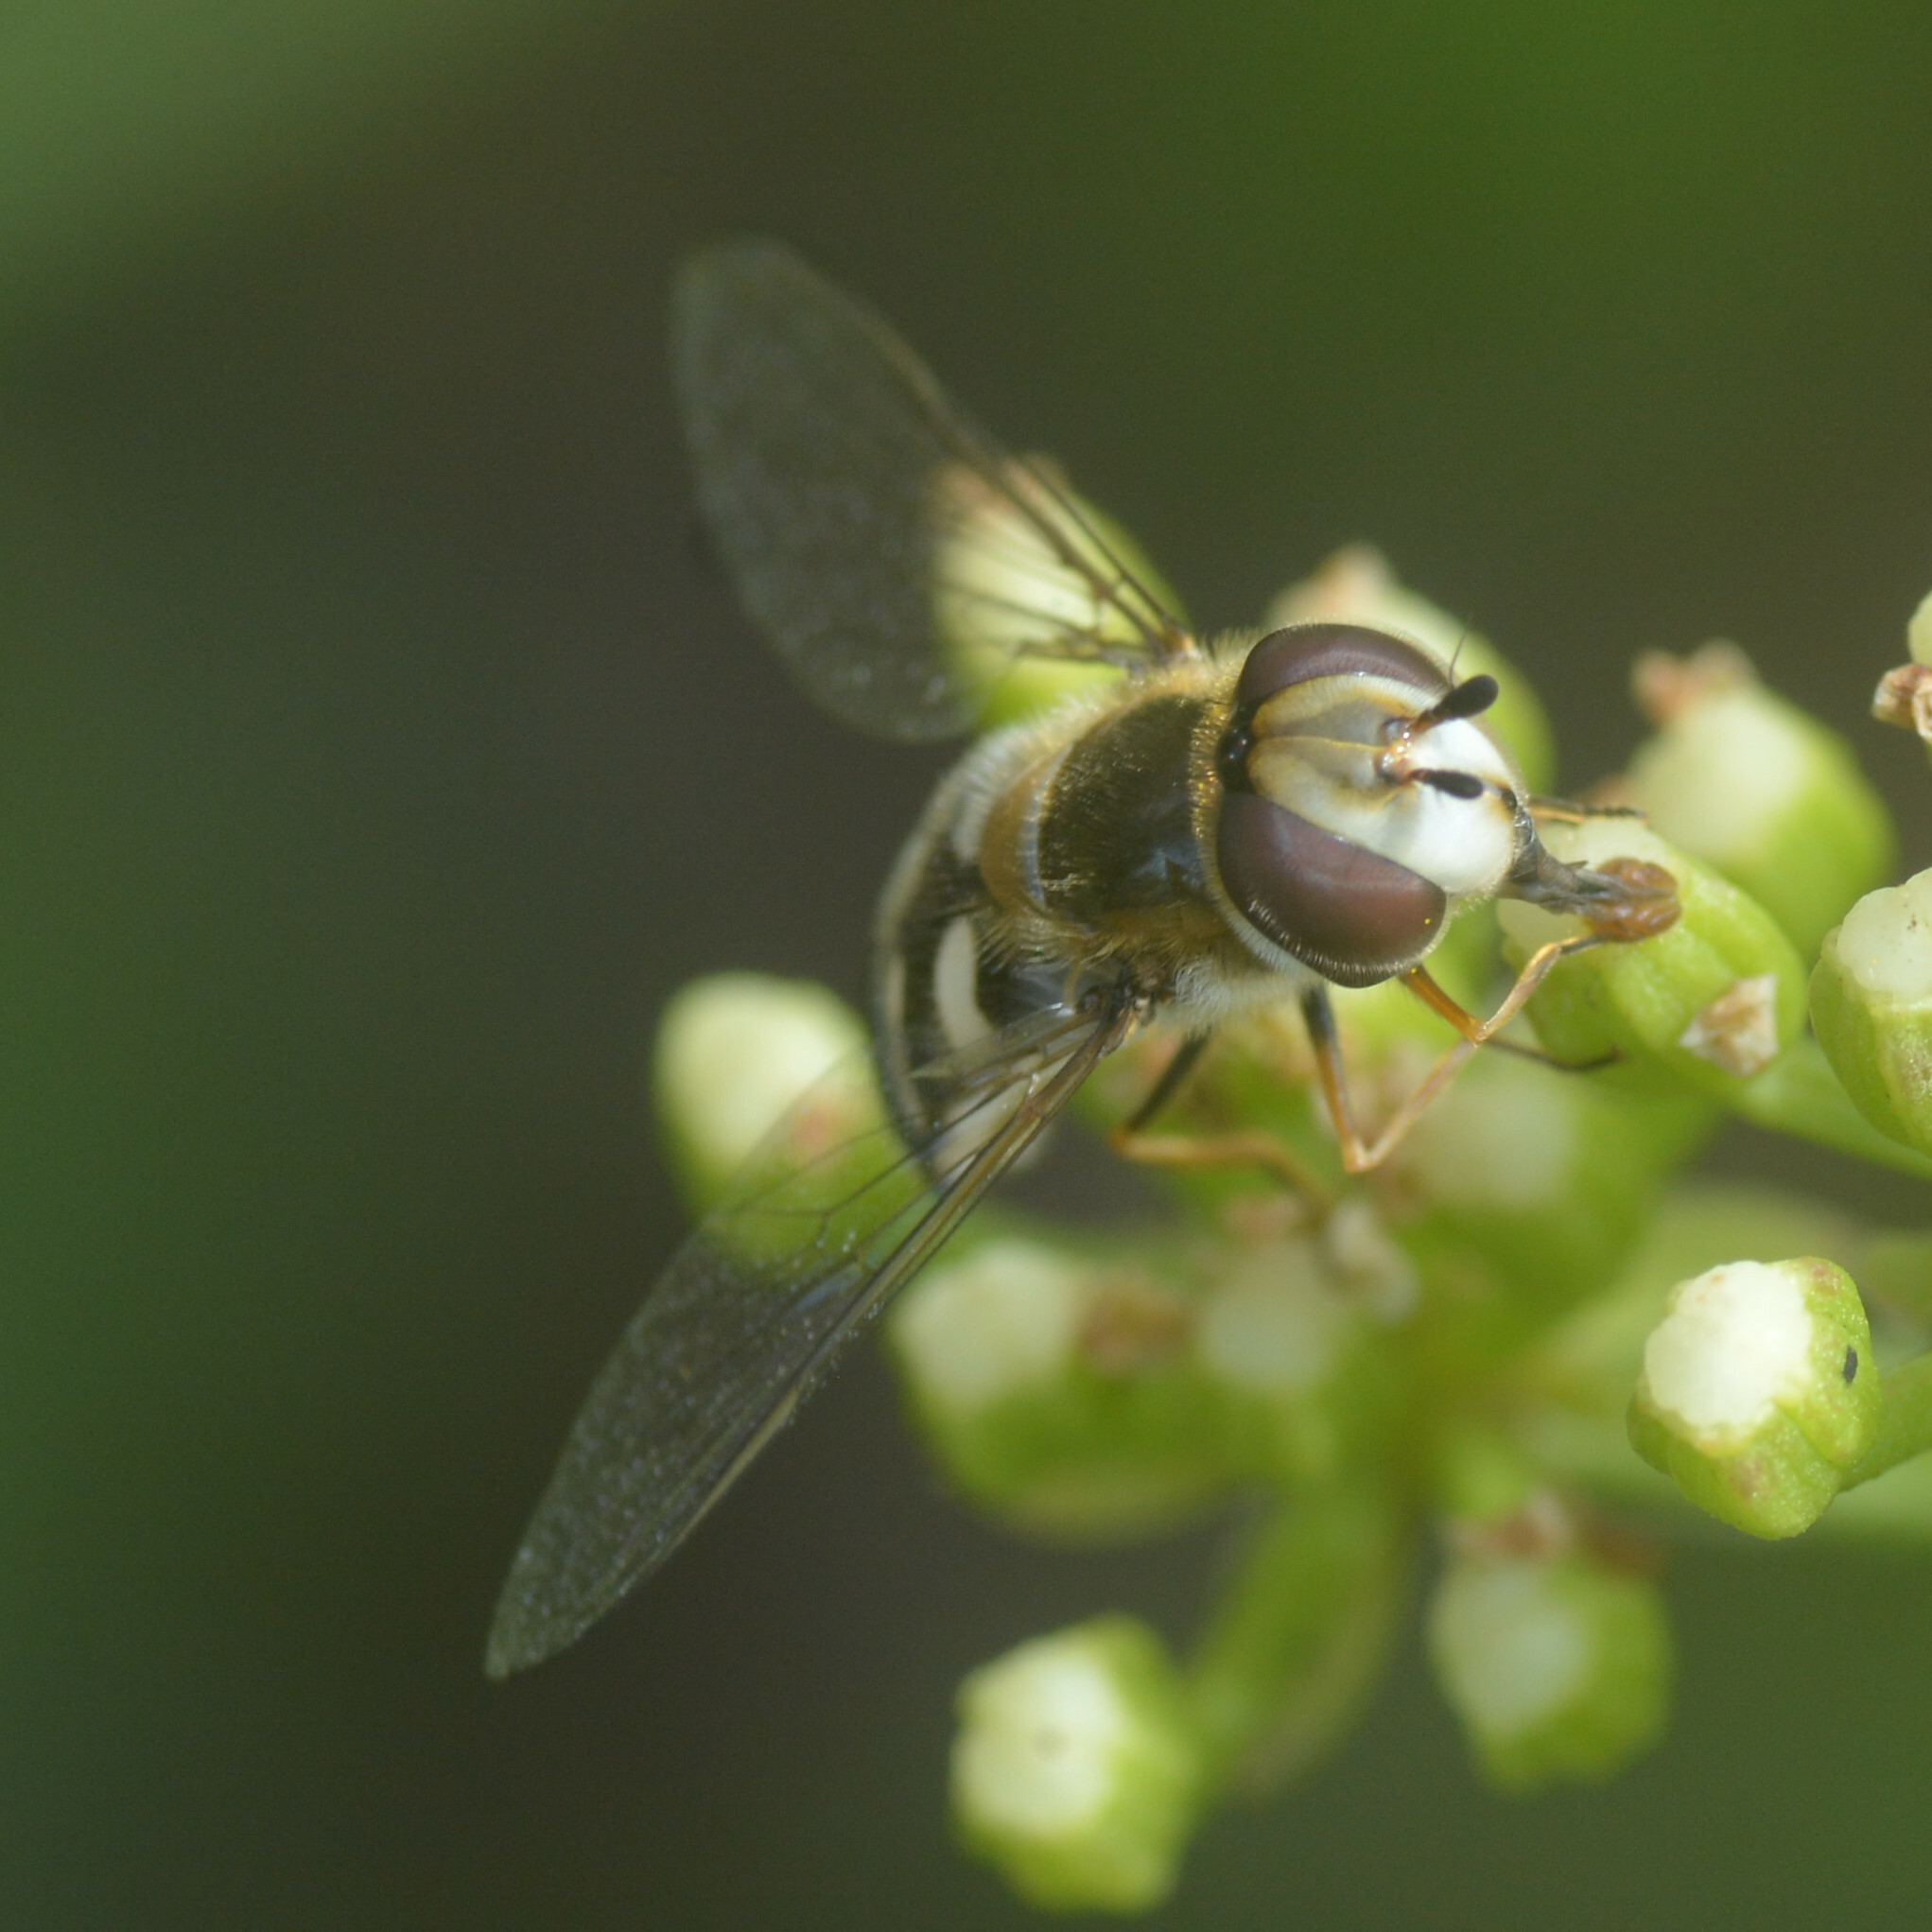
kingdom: Animalia
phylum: Arthropoda
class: Insecta
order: Diptera
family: Syrphidae
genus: Scaeva
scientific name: Scaeva pyrastri
